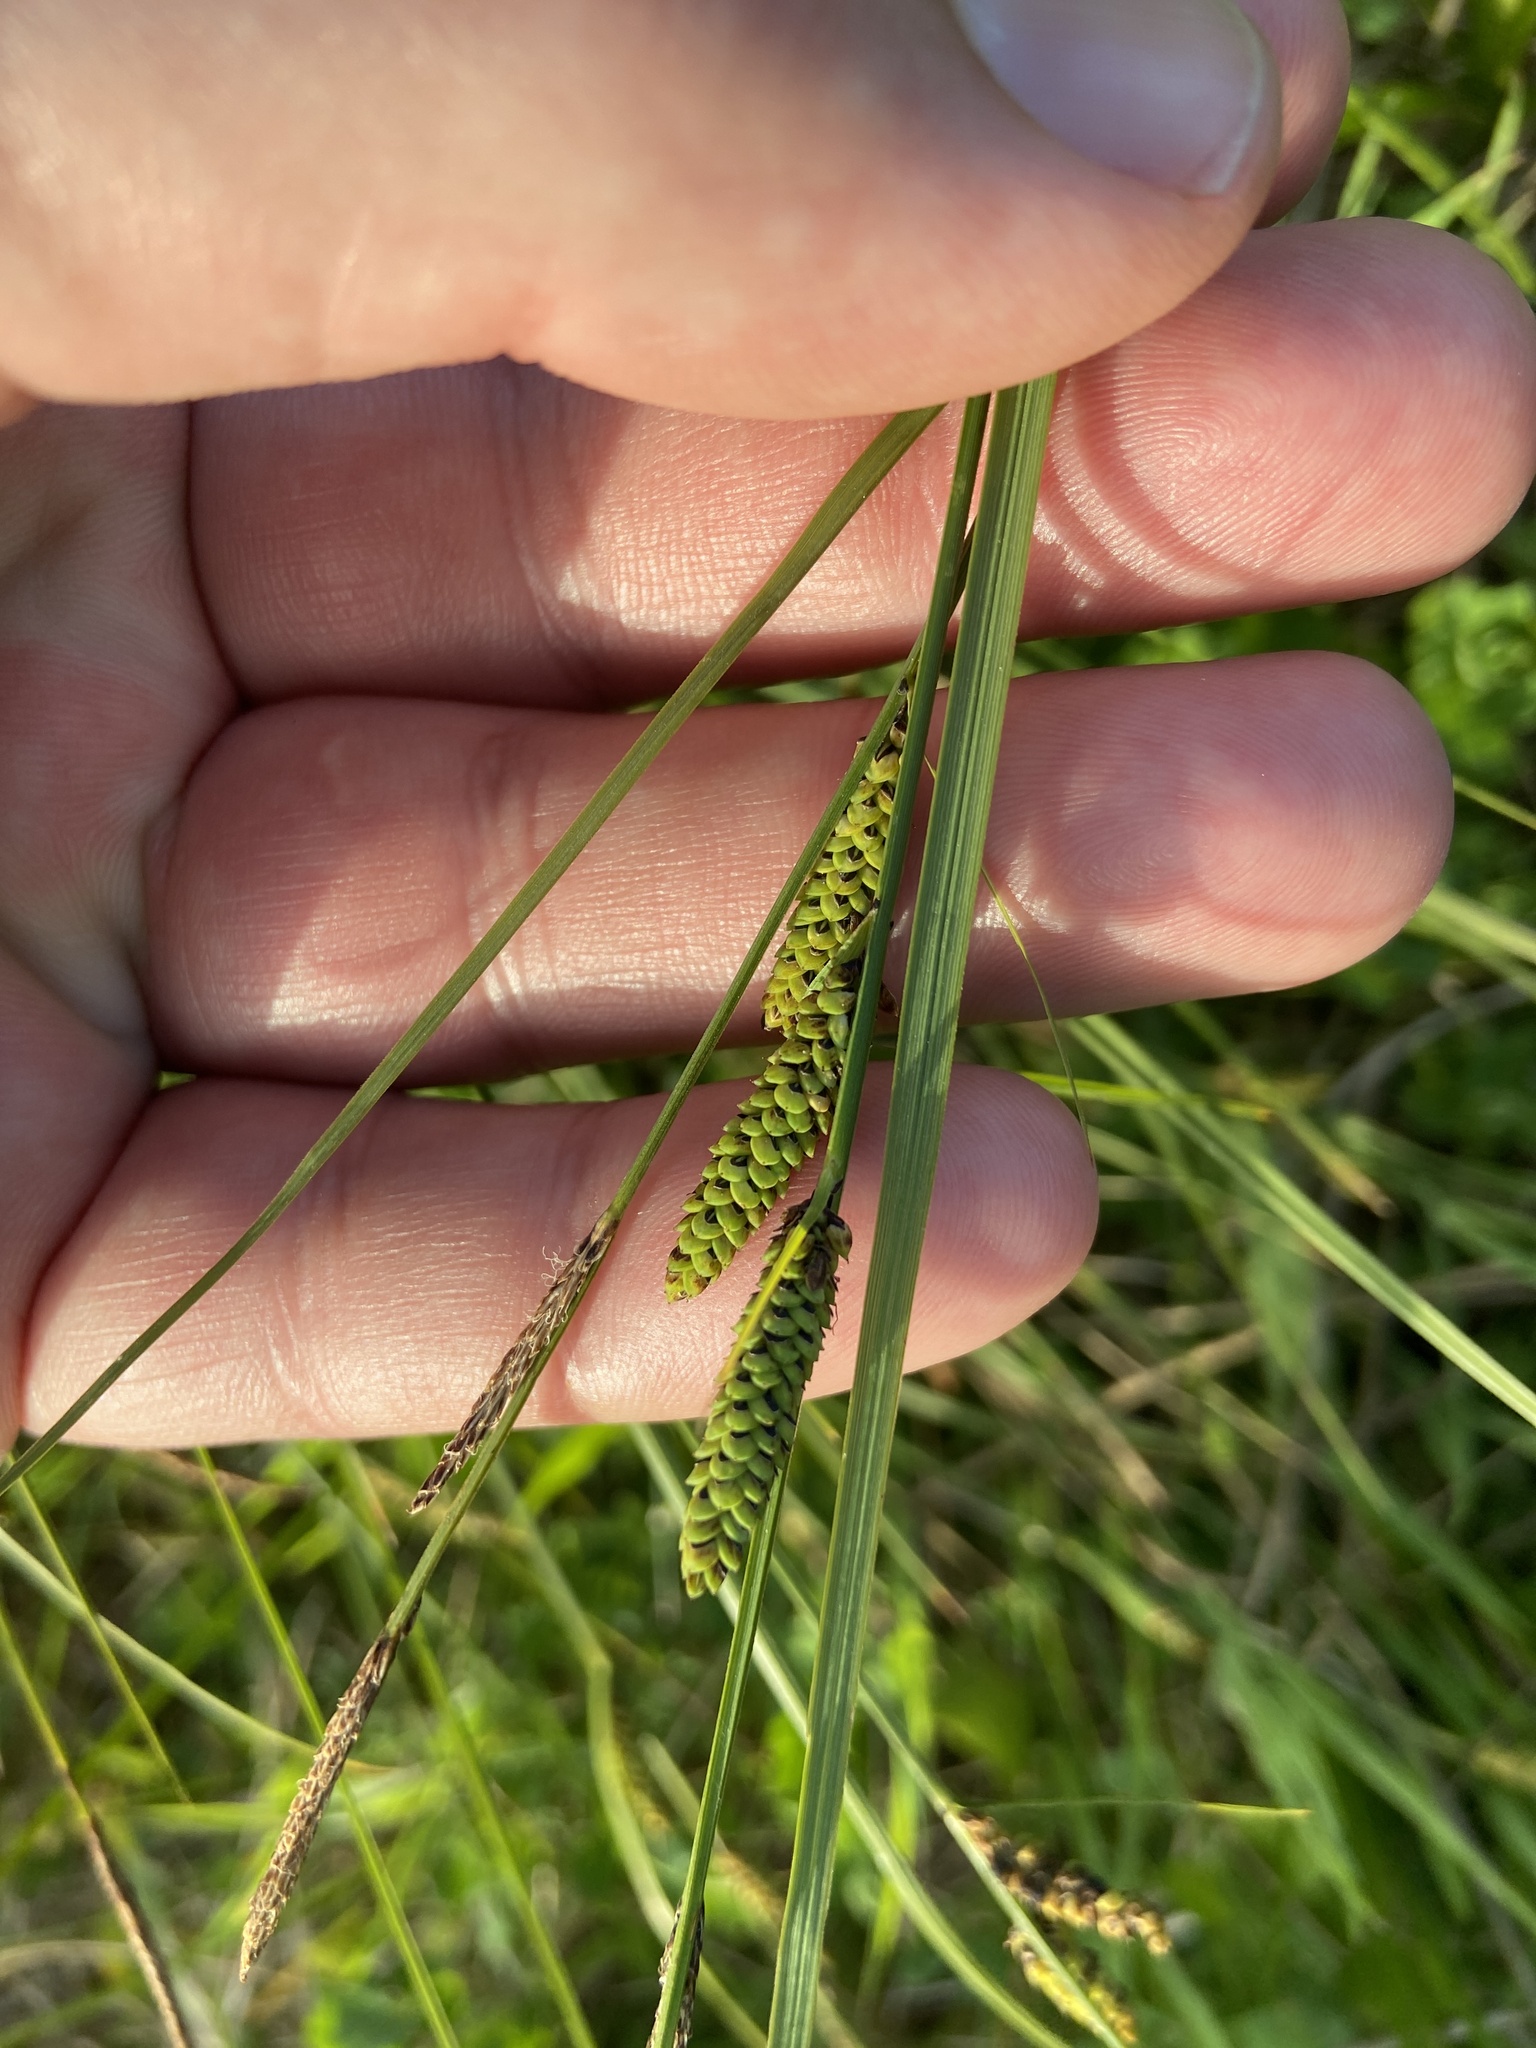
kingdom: Plantae
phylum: Tracheophyta
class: Liliopsida
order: Poales
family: Cyperaceae
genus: Carex
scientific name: Carex nigra
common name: Common sedge
